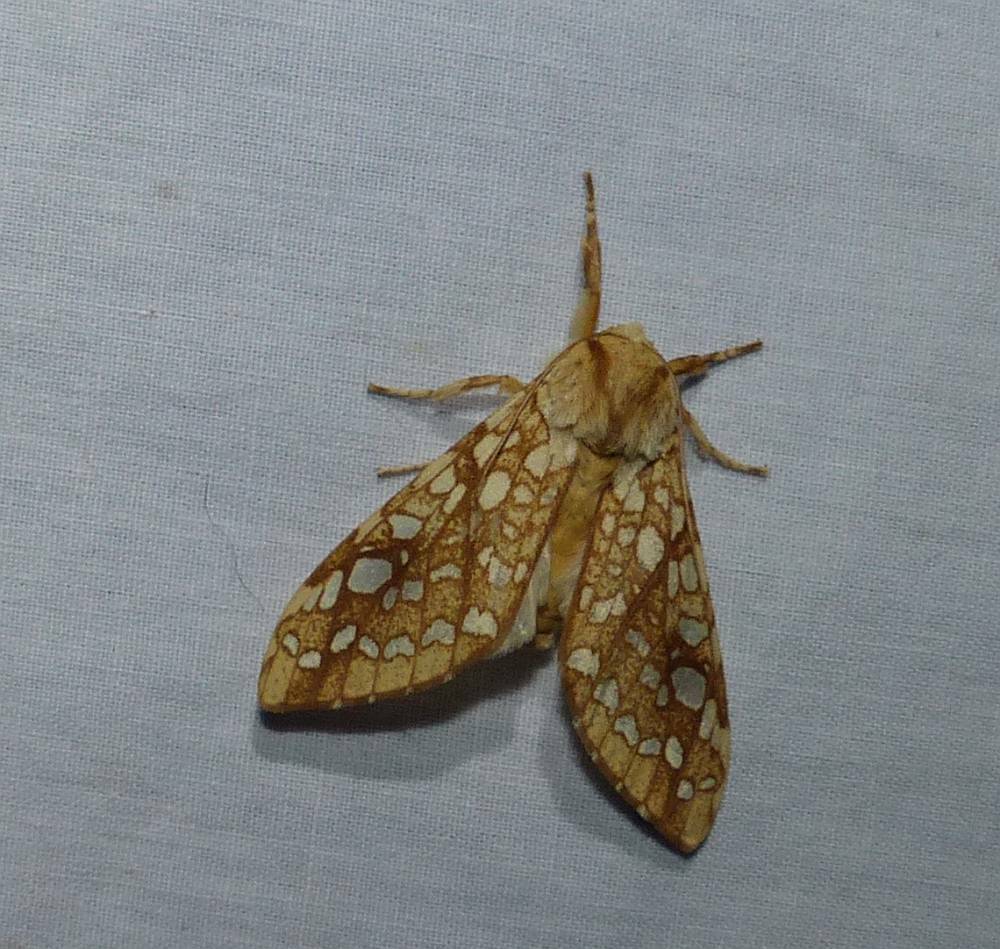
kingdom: Animalia
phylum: Arthropoda
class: Insecta
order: Lepidoptera
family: Erebidae
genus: Lophocampa
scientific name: Lophocampa caryae
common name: Hickory tussock moth
